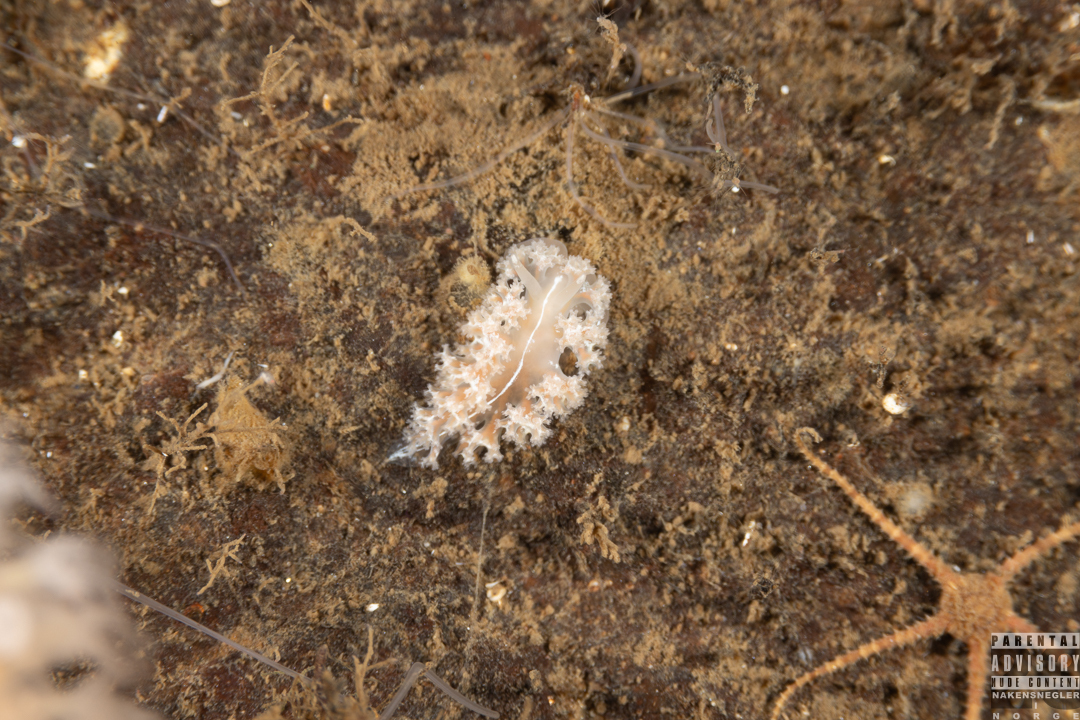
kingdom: Animalia
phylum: Mollusca
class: Gastropoda
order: Nudibranchia
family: Heroidae
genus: Hero
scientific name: Hero formosa
